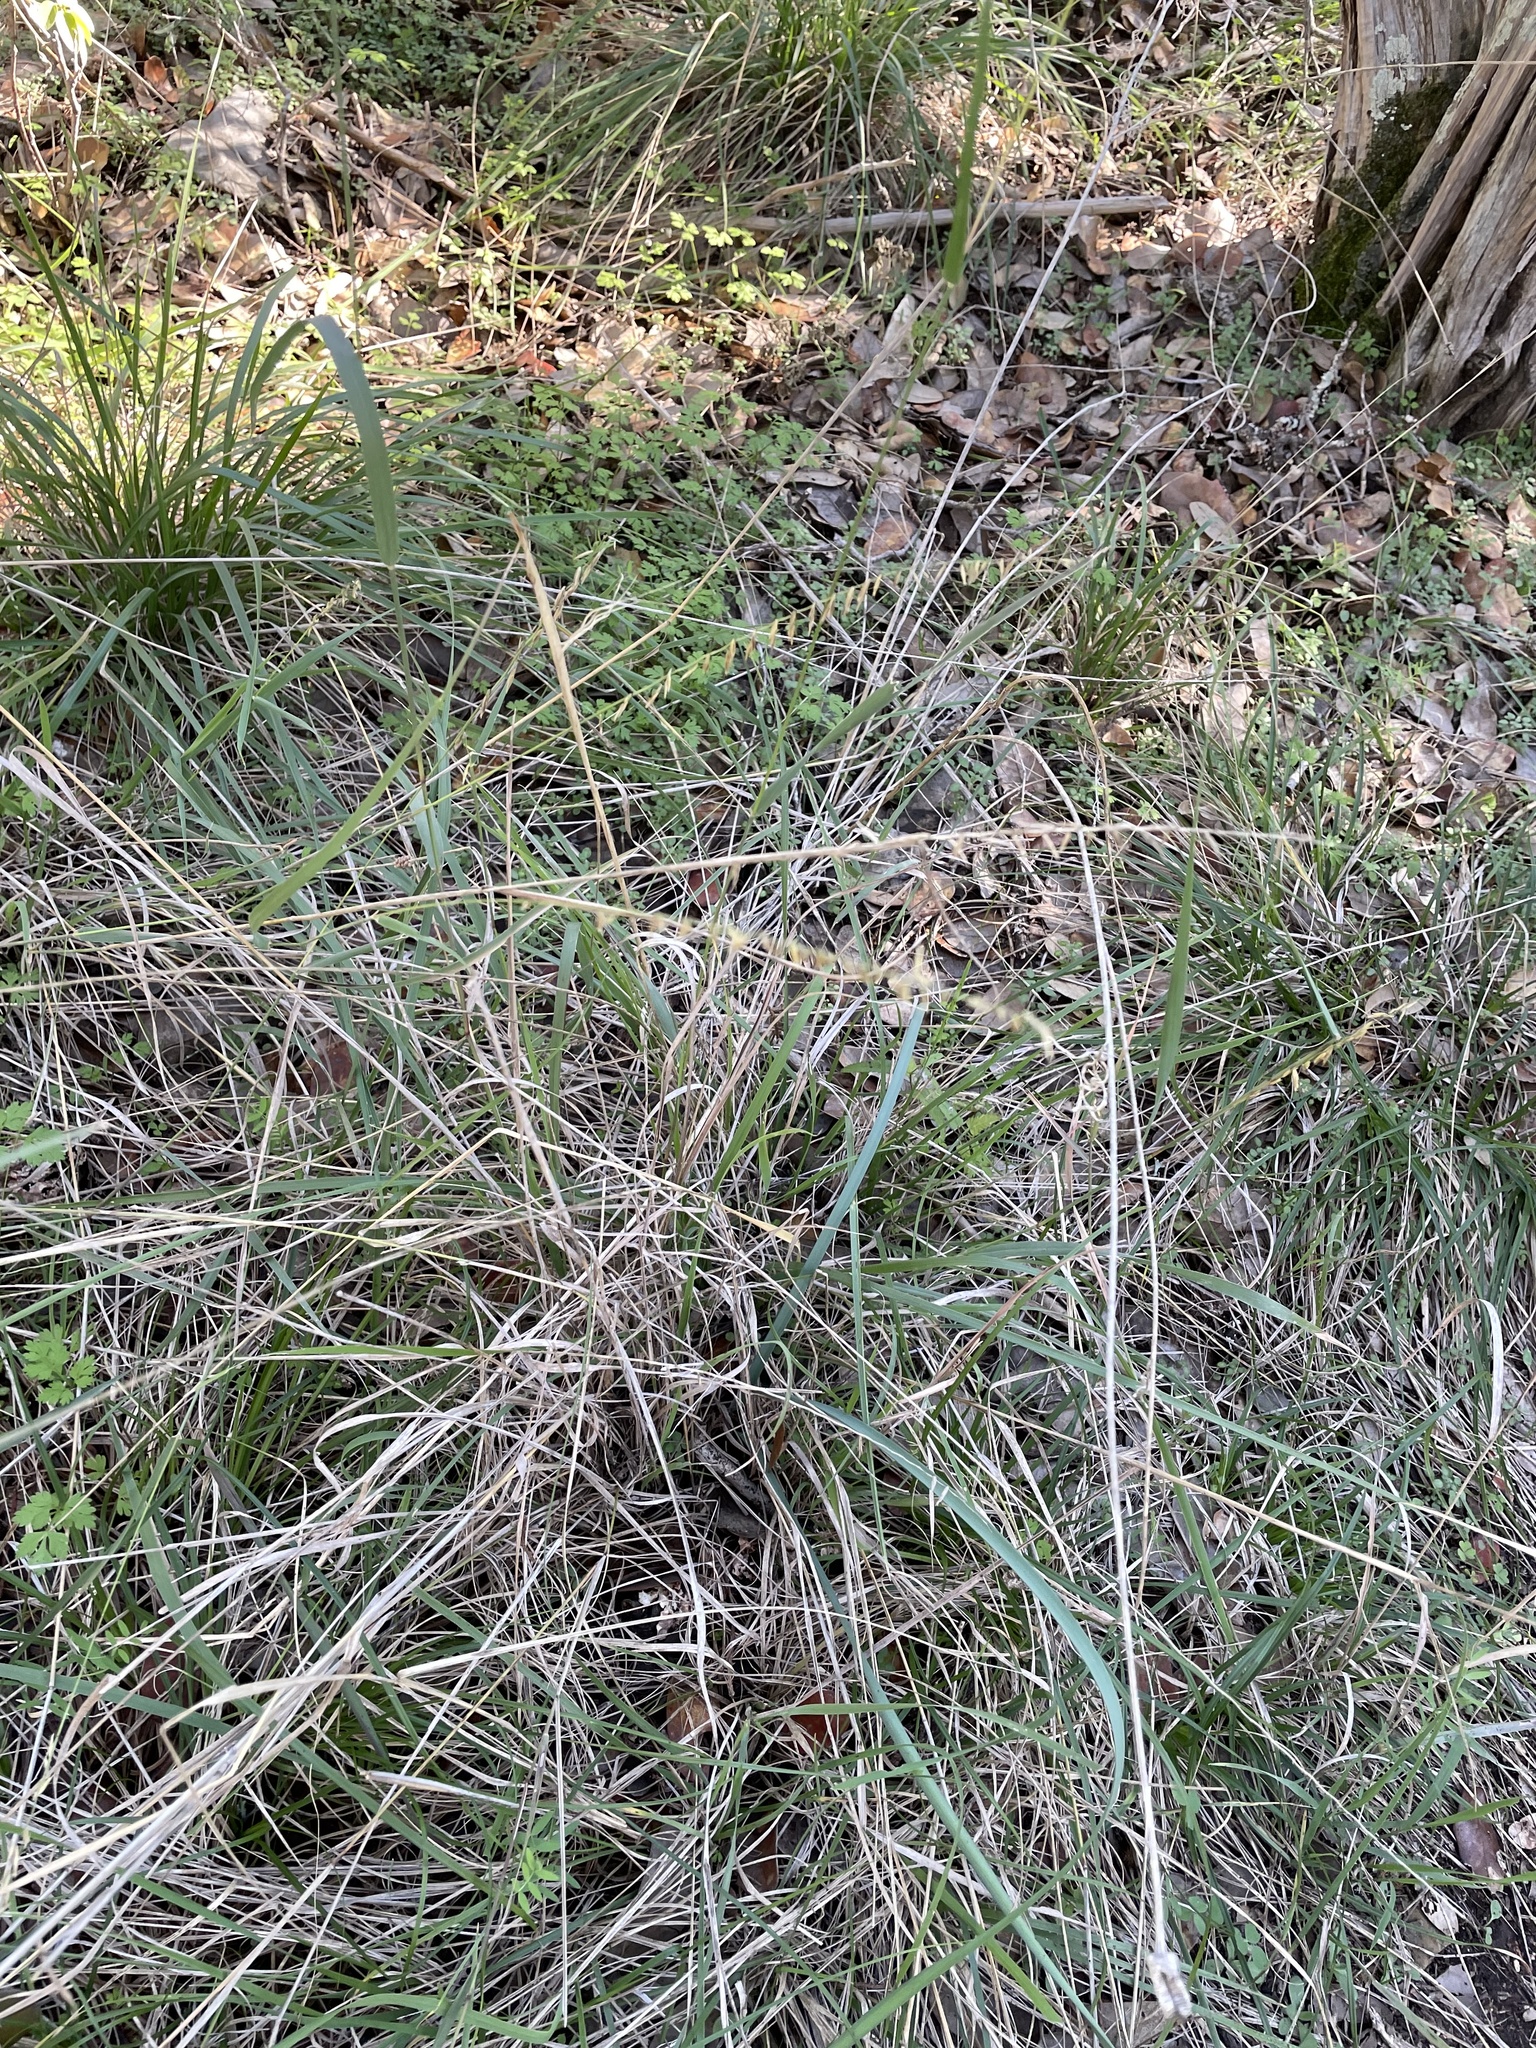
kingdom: Plantae
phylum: Tracheophyta
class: Liliopsida
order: Poales
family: Poaceae
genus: Bouteloua
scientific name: Bouteloua curtipendula
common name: Side-oats grama
